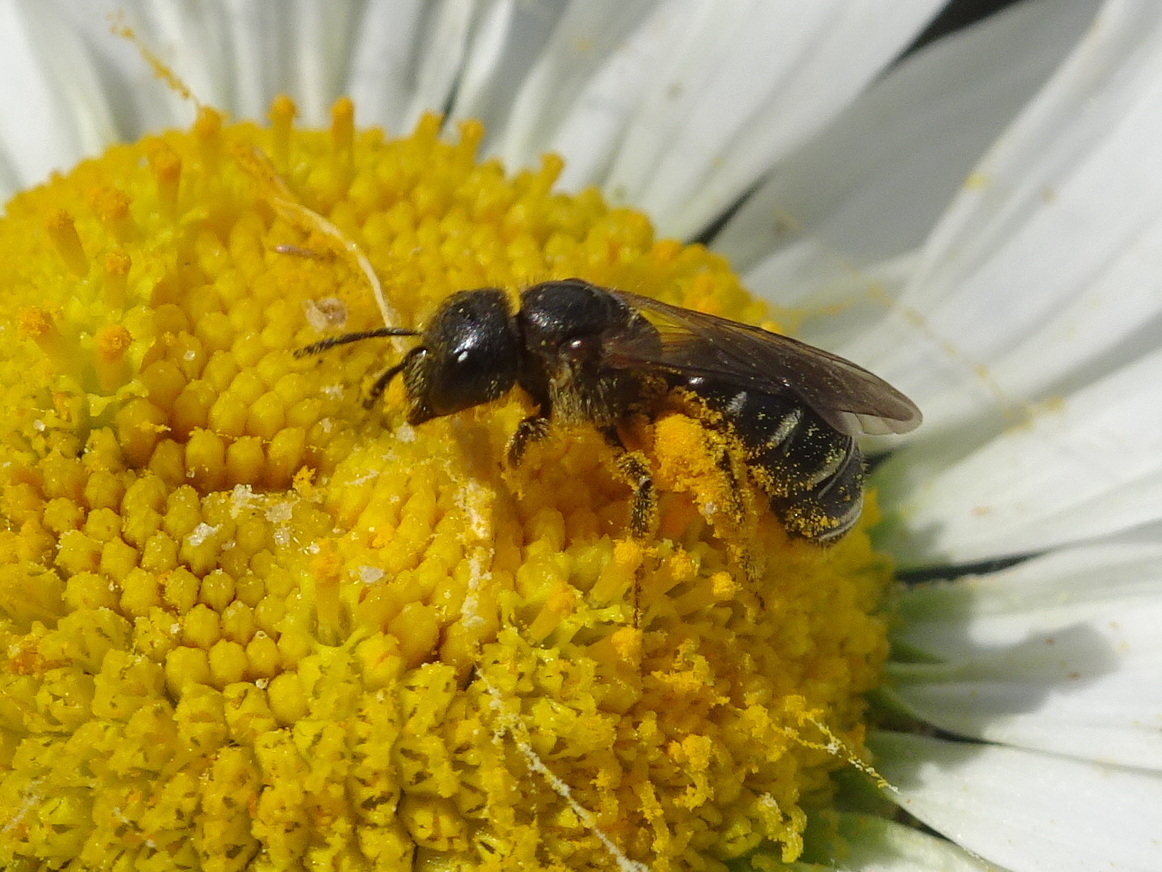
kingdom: Animalia
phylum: Arthropoda
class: Insecta
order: Hymenoptera
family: Halictidae
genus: Halictus
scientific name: Halictus maculatus
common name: Box-heades furrow bee
